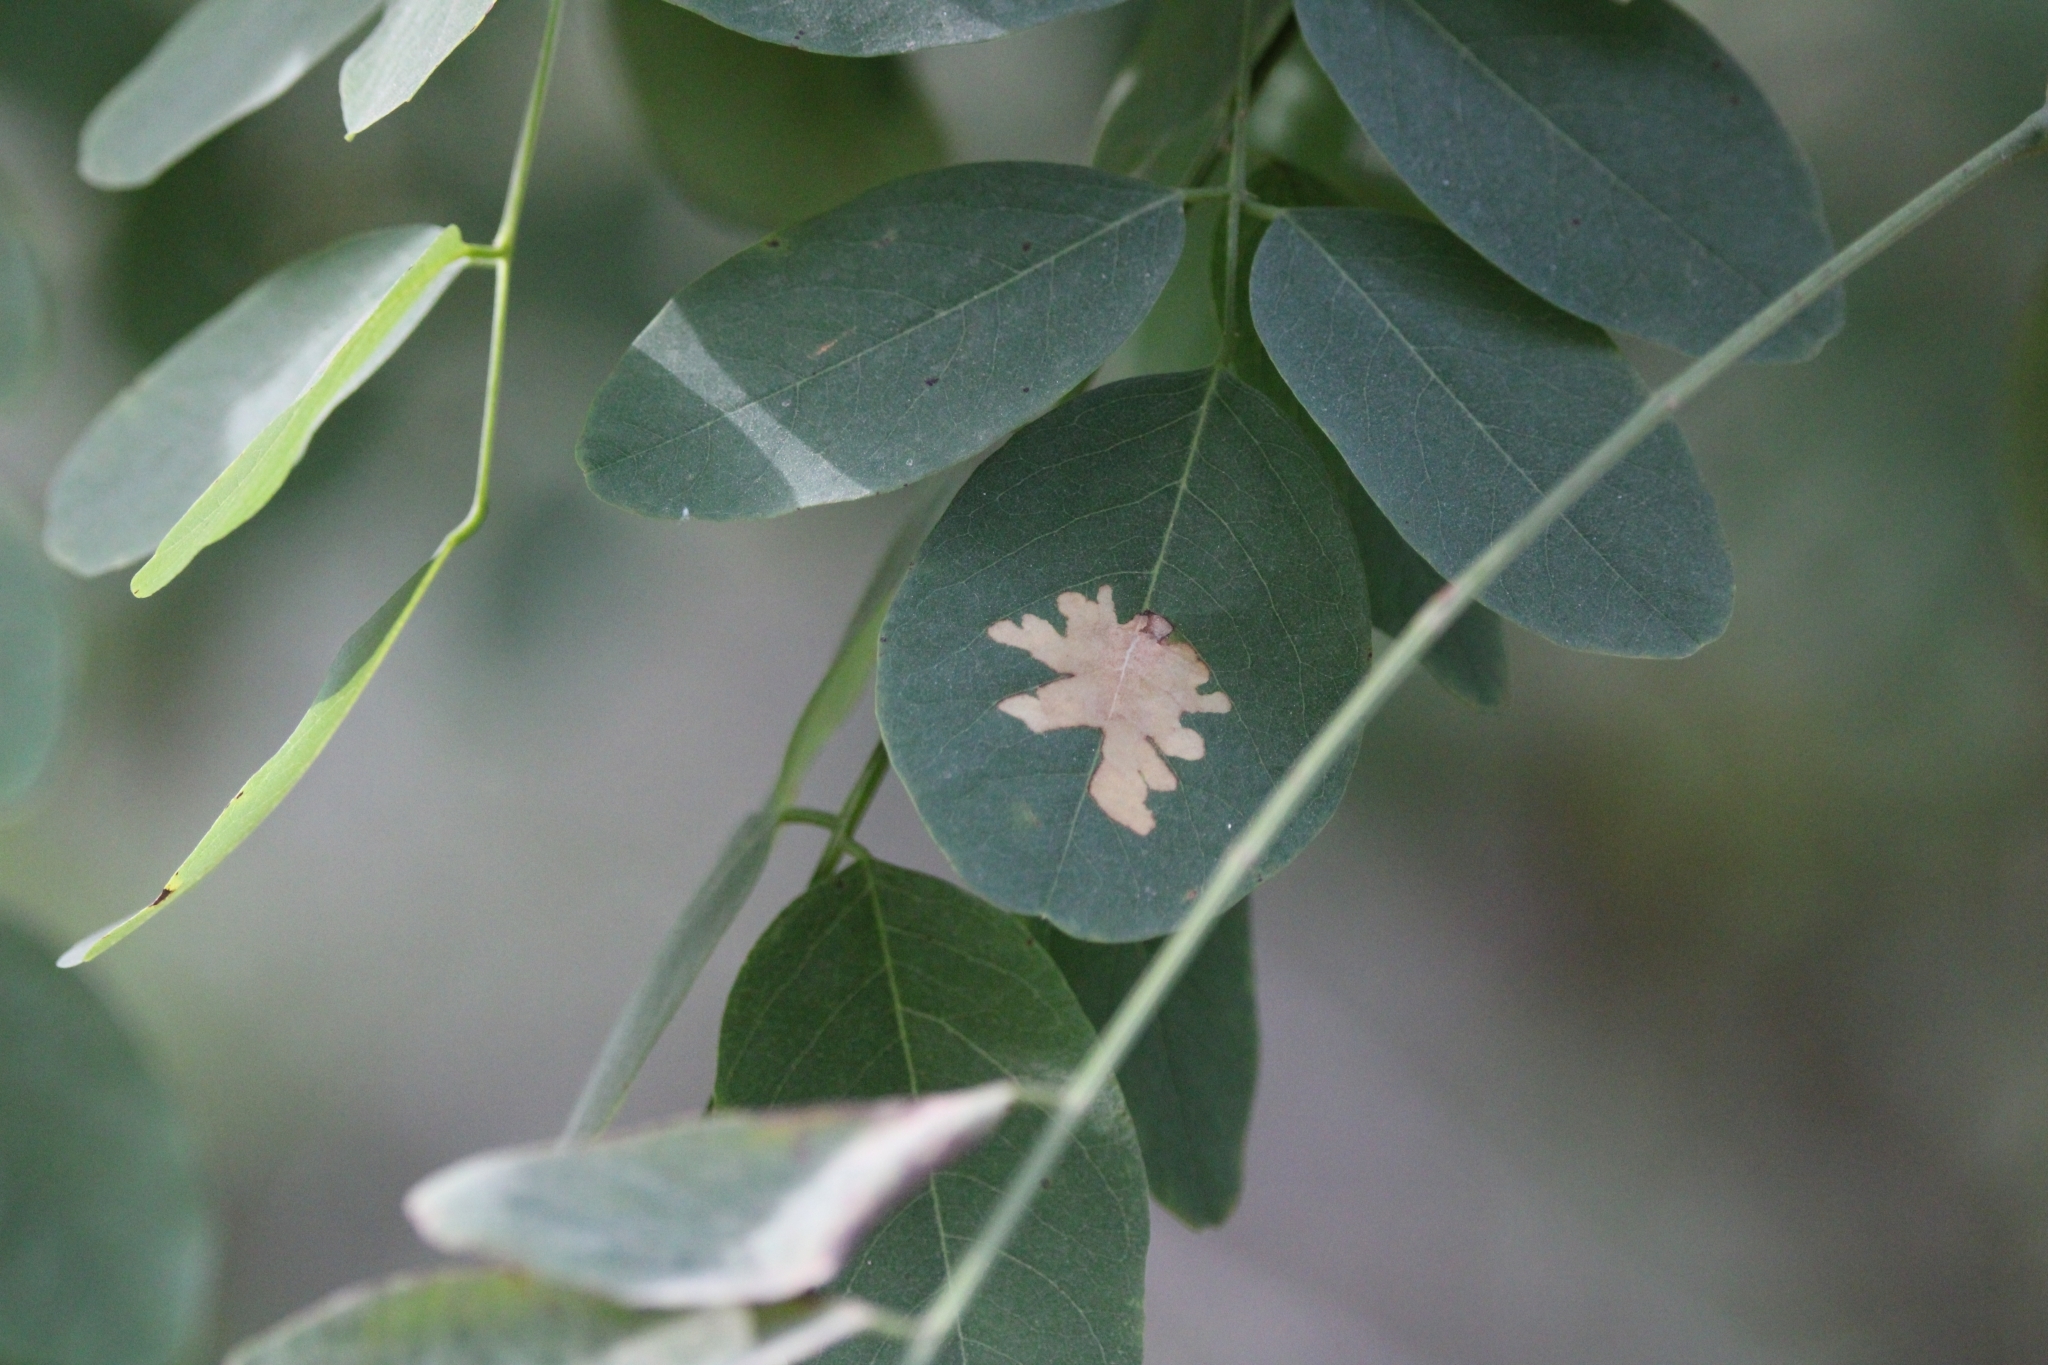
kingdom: Animalia
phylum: Arthropoda
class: Insecta
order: Lepidoptera
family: Gracillariidae
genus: Parectopa
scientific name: Parectopa robiniella
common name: Locust digitate leafminer
